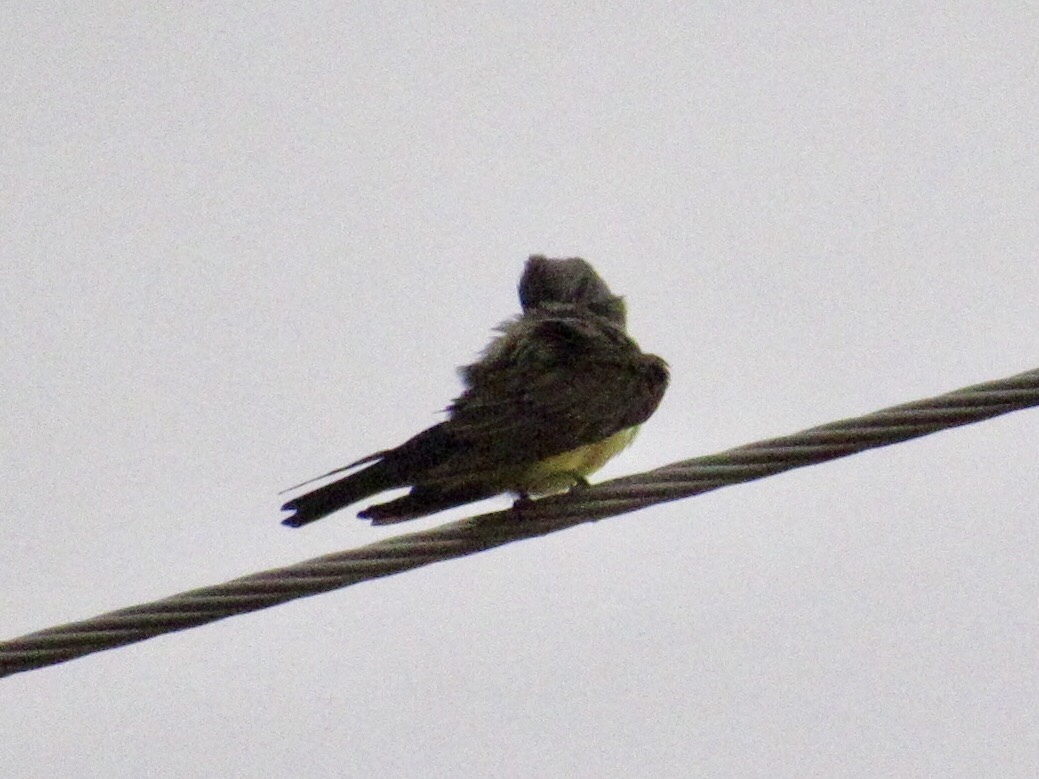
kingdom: Animalia
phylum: Chordata
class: Aves
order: Passeriformes
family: Tyrannidae
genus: Tyrannus
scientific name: Tyrannus vociferans
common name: Cassin's kingbird
